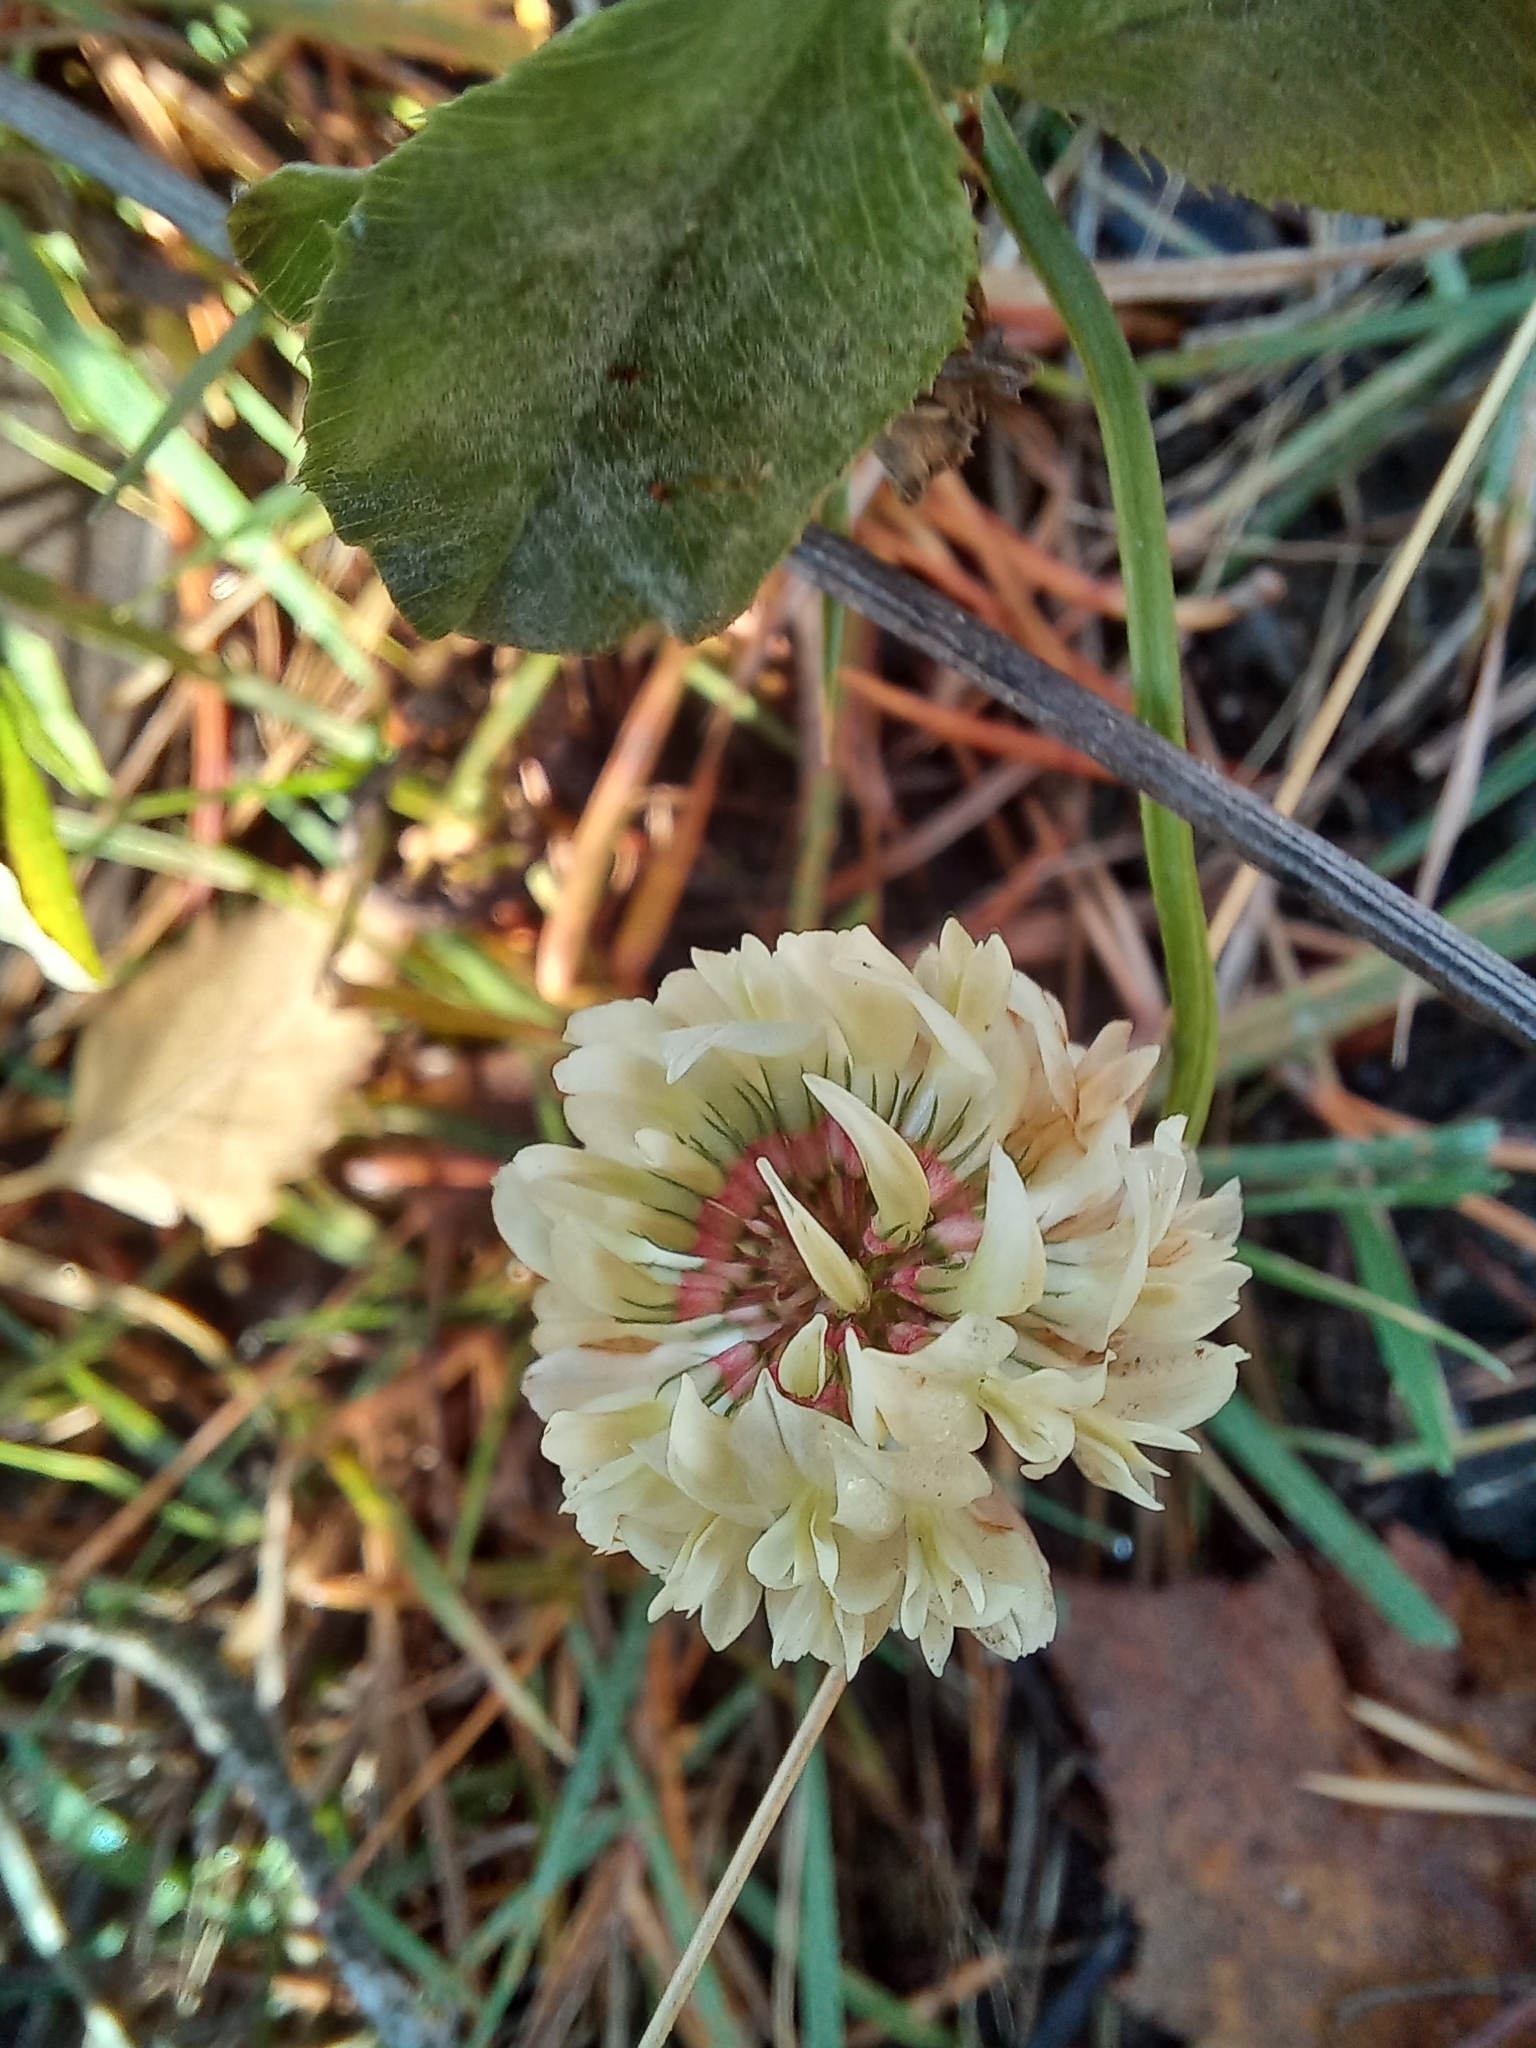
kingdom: Plantae
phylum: Tracheophyta
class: Magnoliopsida
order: Fabales
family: Fabaceae
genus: Trifolium
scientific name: Trifolium repens
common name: White clover
